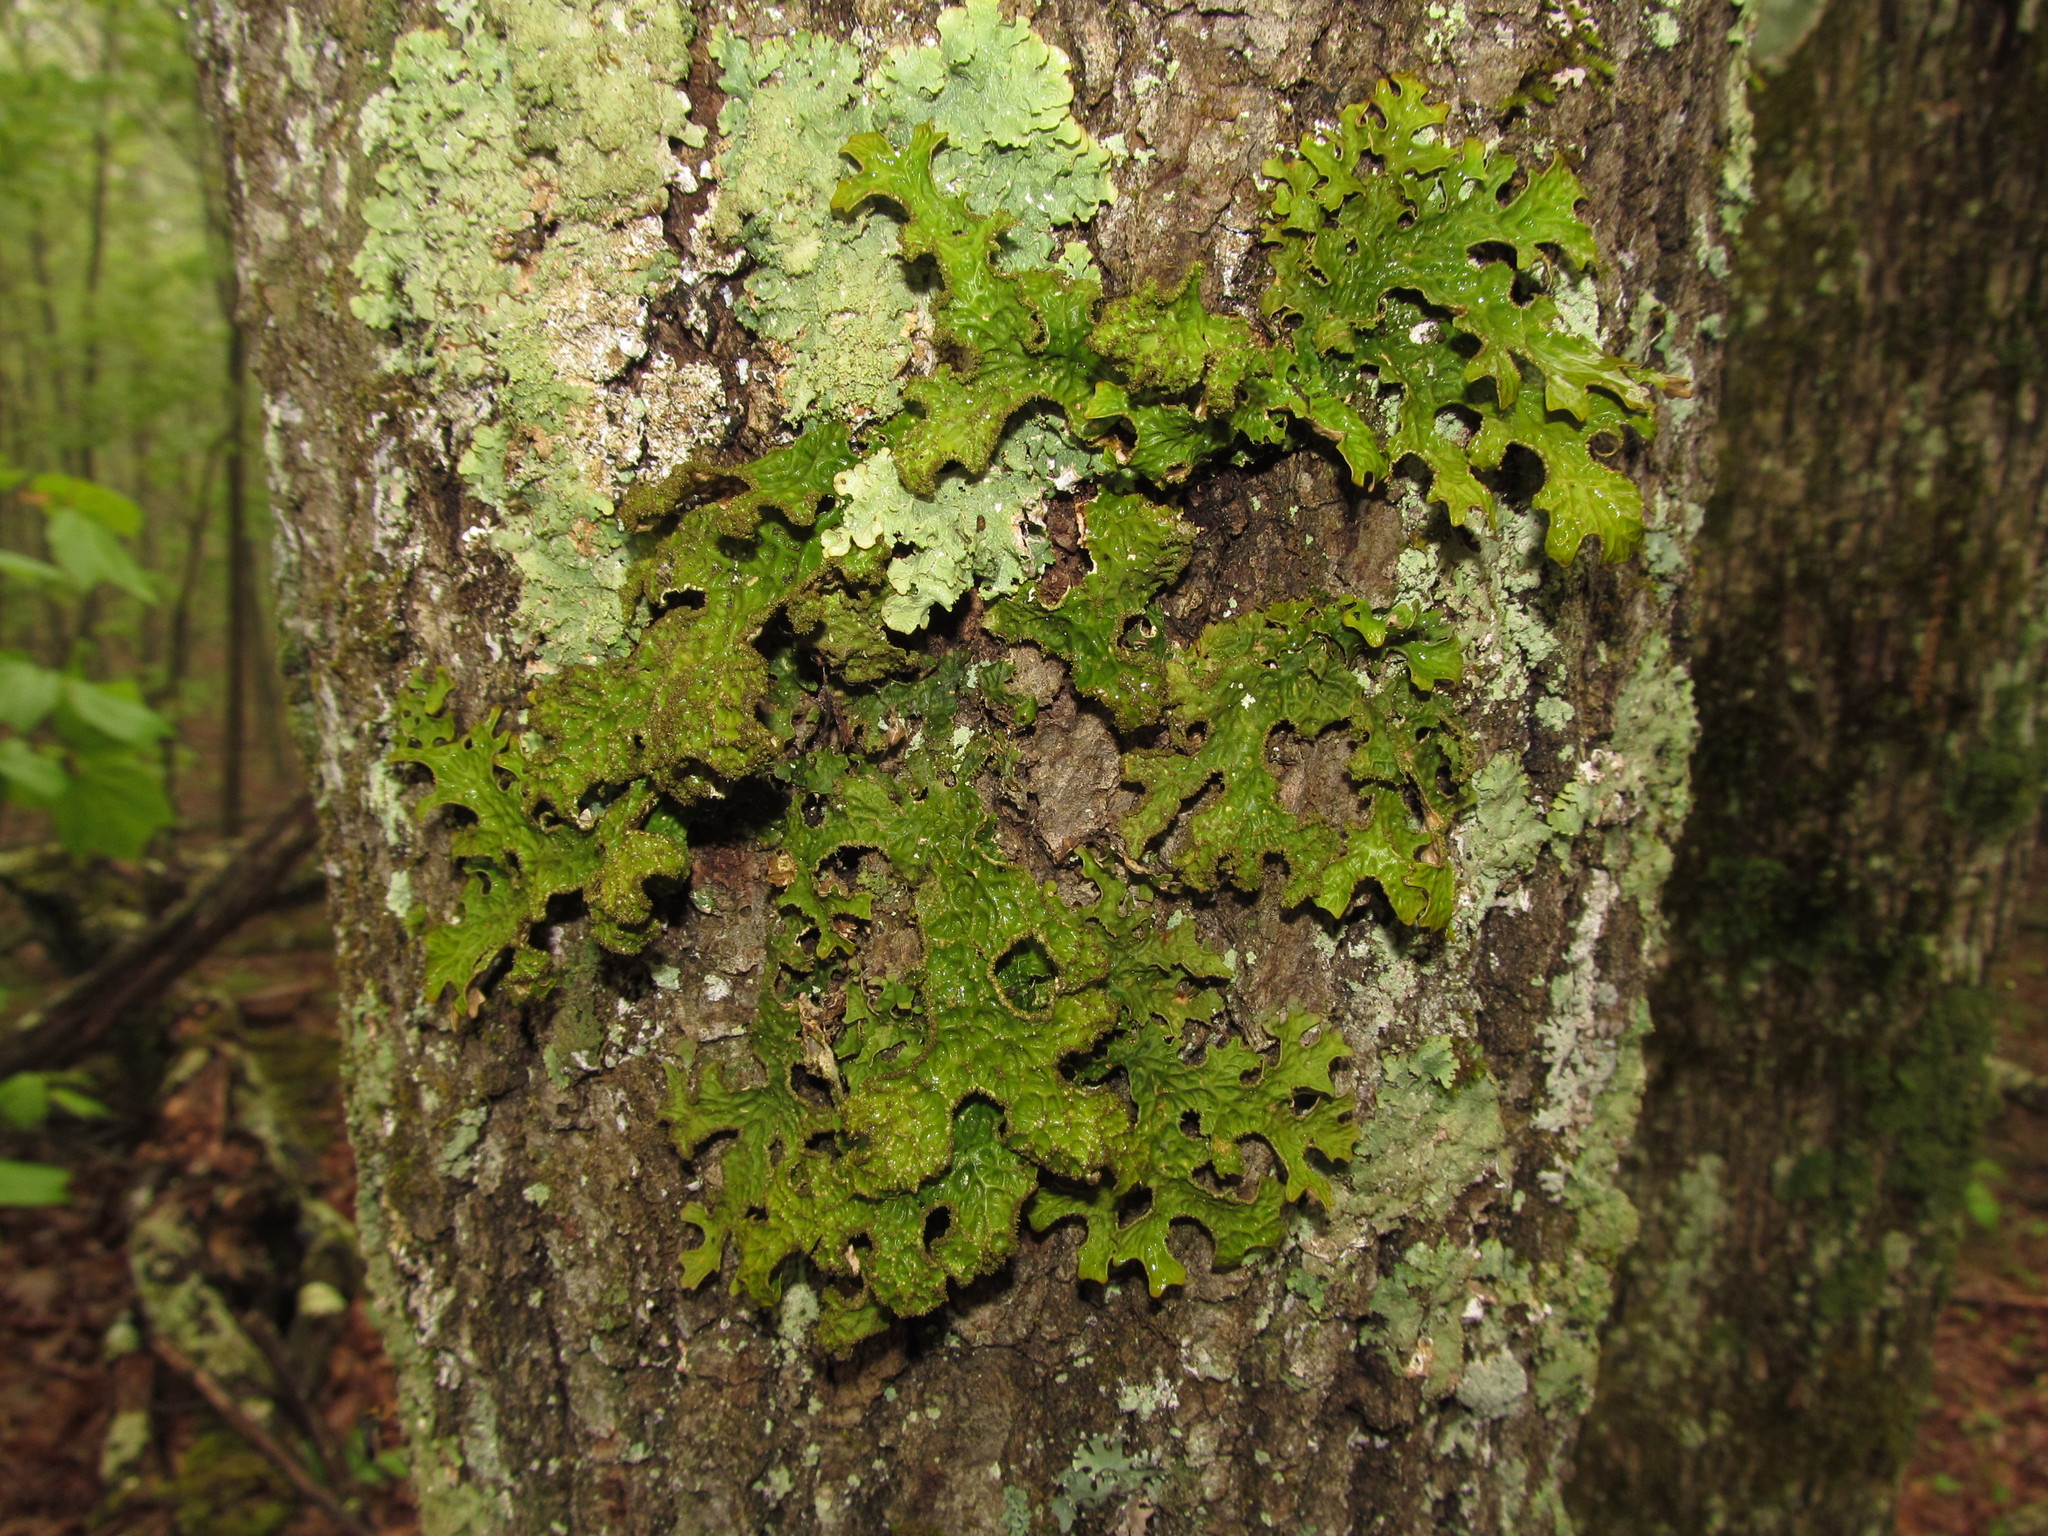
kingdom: Fungi
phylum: Ascomycota
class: Lecanoromycetes
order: Peltigerales
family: Lobariaceae
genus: Lobaria
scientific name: Lobaria pulmonaria
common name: Lungwort
